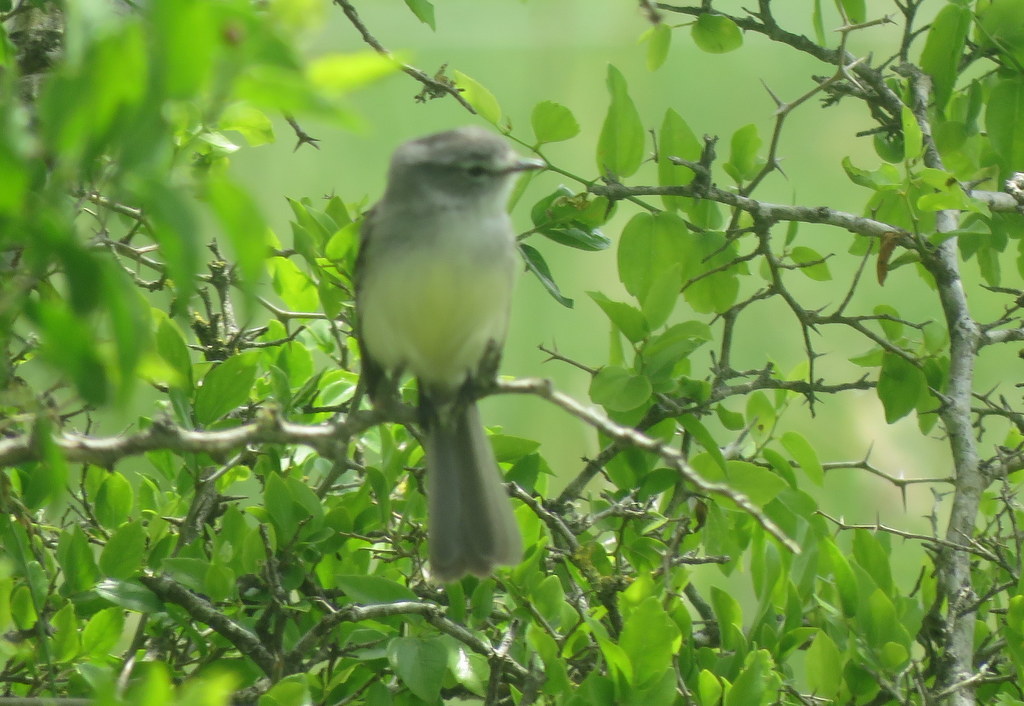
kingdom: Animalia
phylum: Chordata
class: Aves
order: Passeriformes
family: Tyrannidae
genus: Serpophaga
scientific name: Serpophaga subcristata
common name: White-crested tyrannulet
